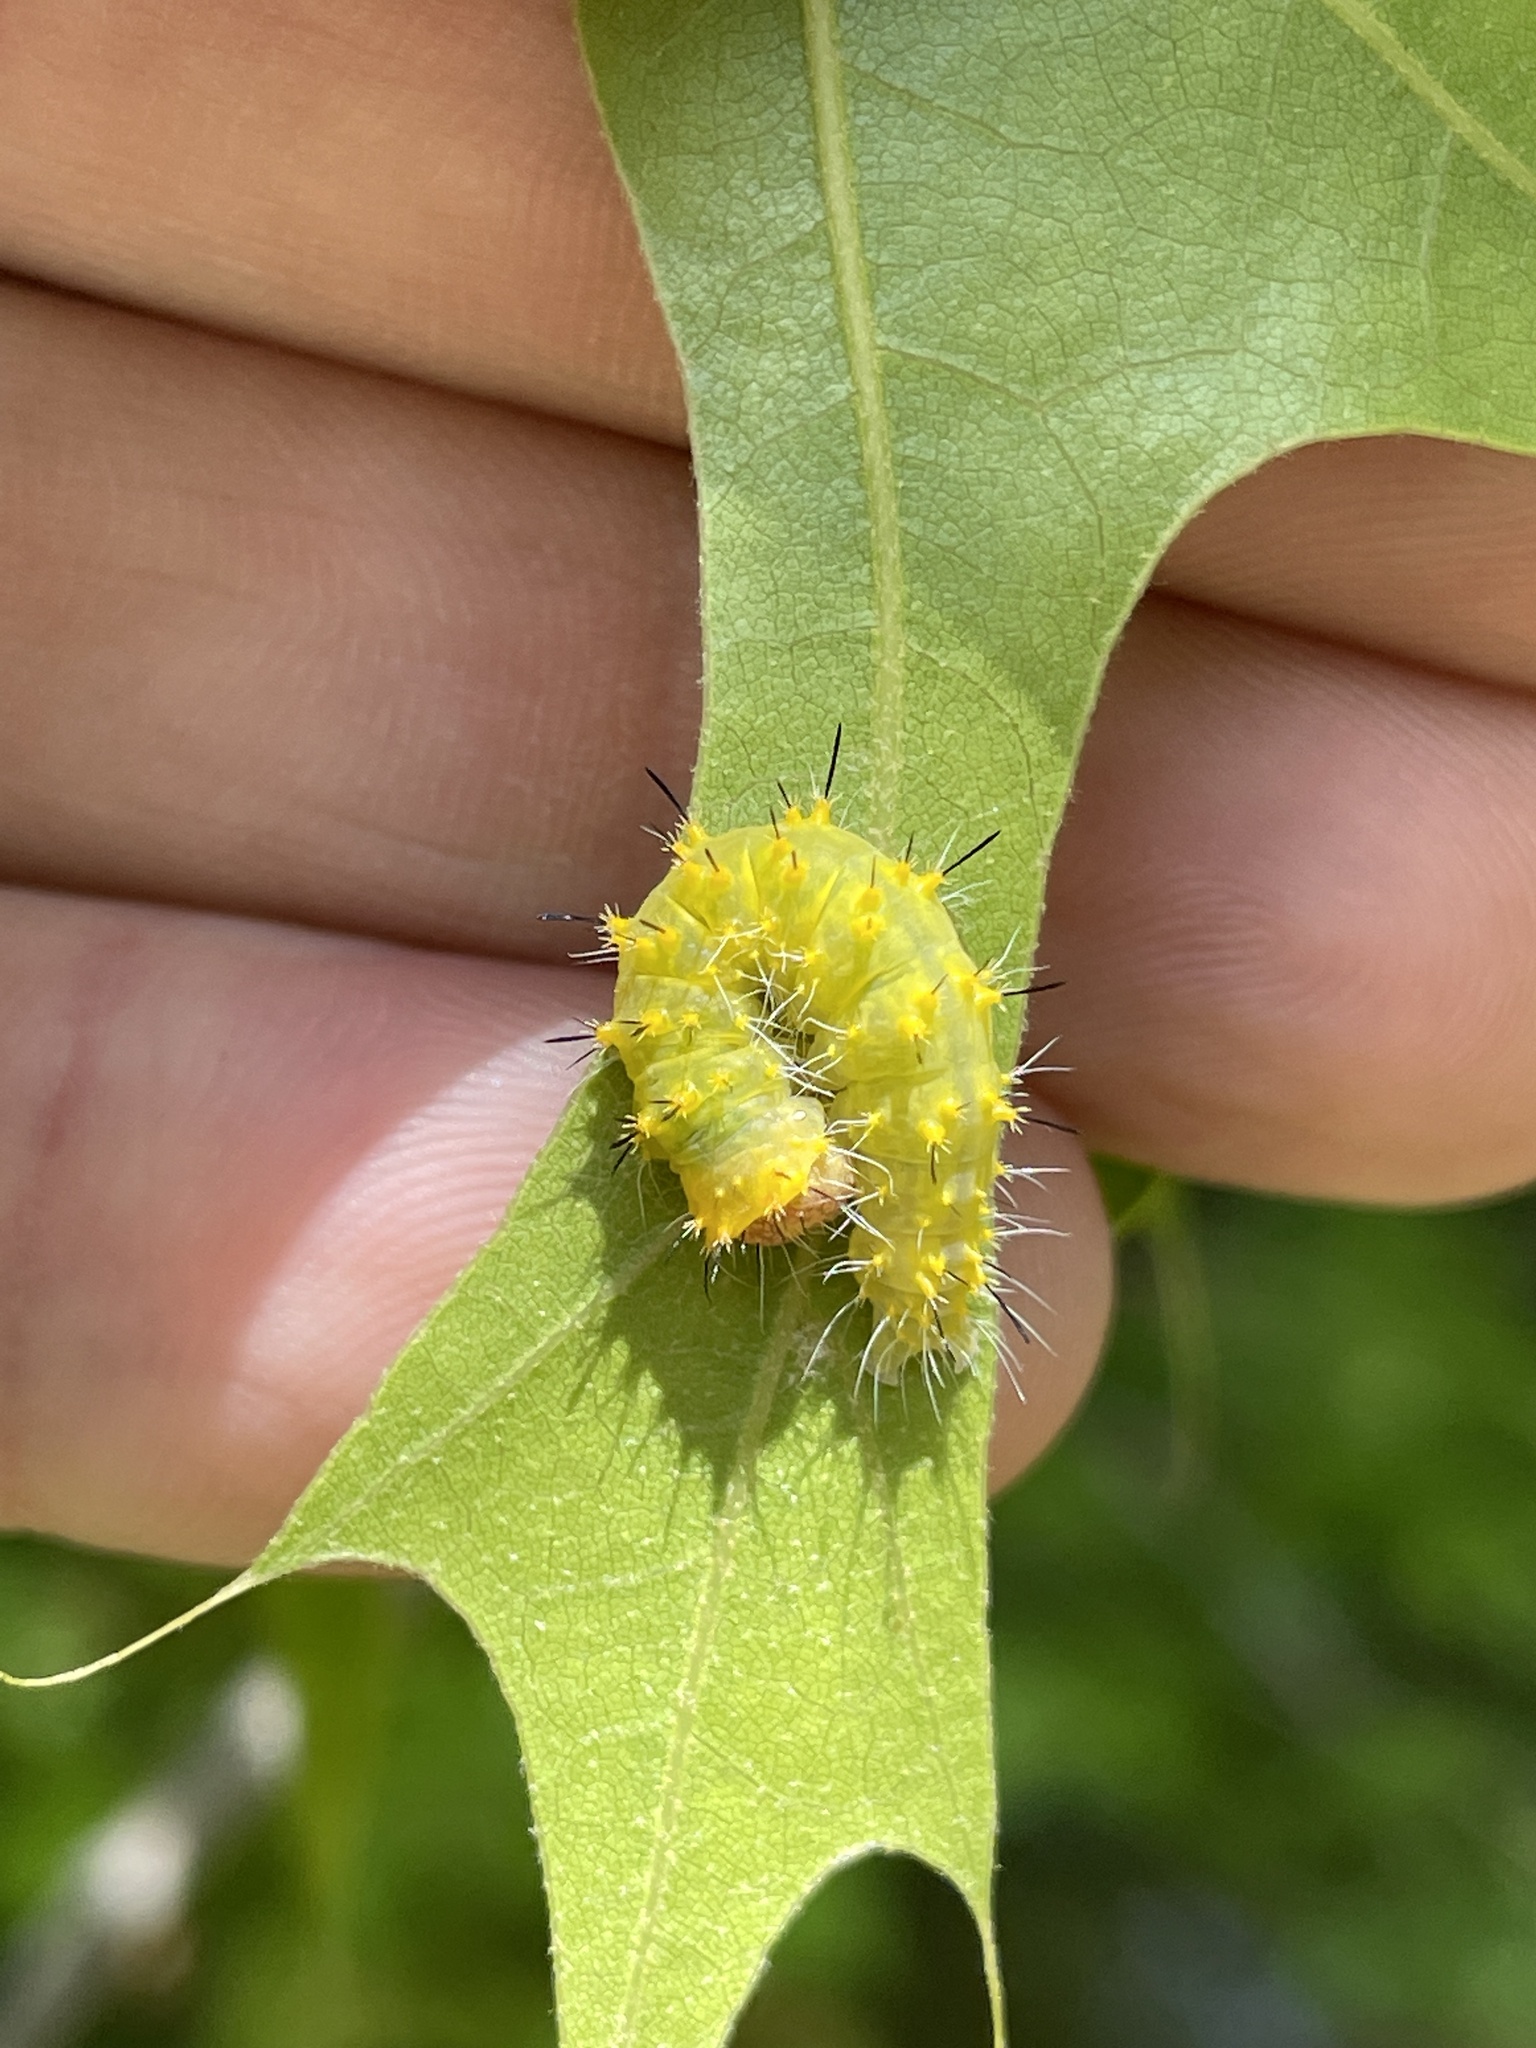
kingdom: Animalia
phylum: Arthropoda
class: Insecta
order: Lepidoptera
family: Noctuidae
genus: Acronicta
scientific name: Acronicta brumosa
